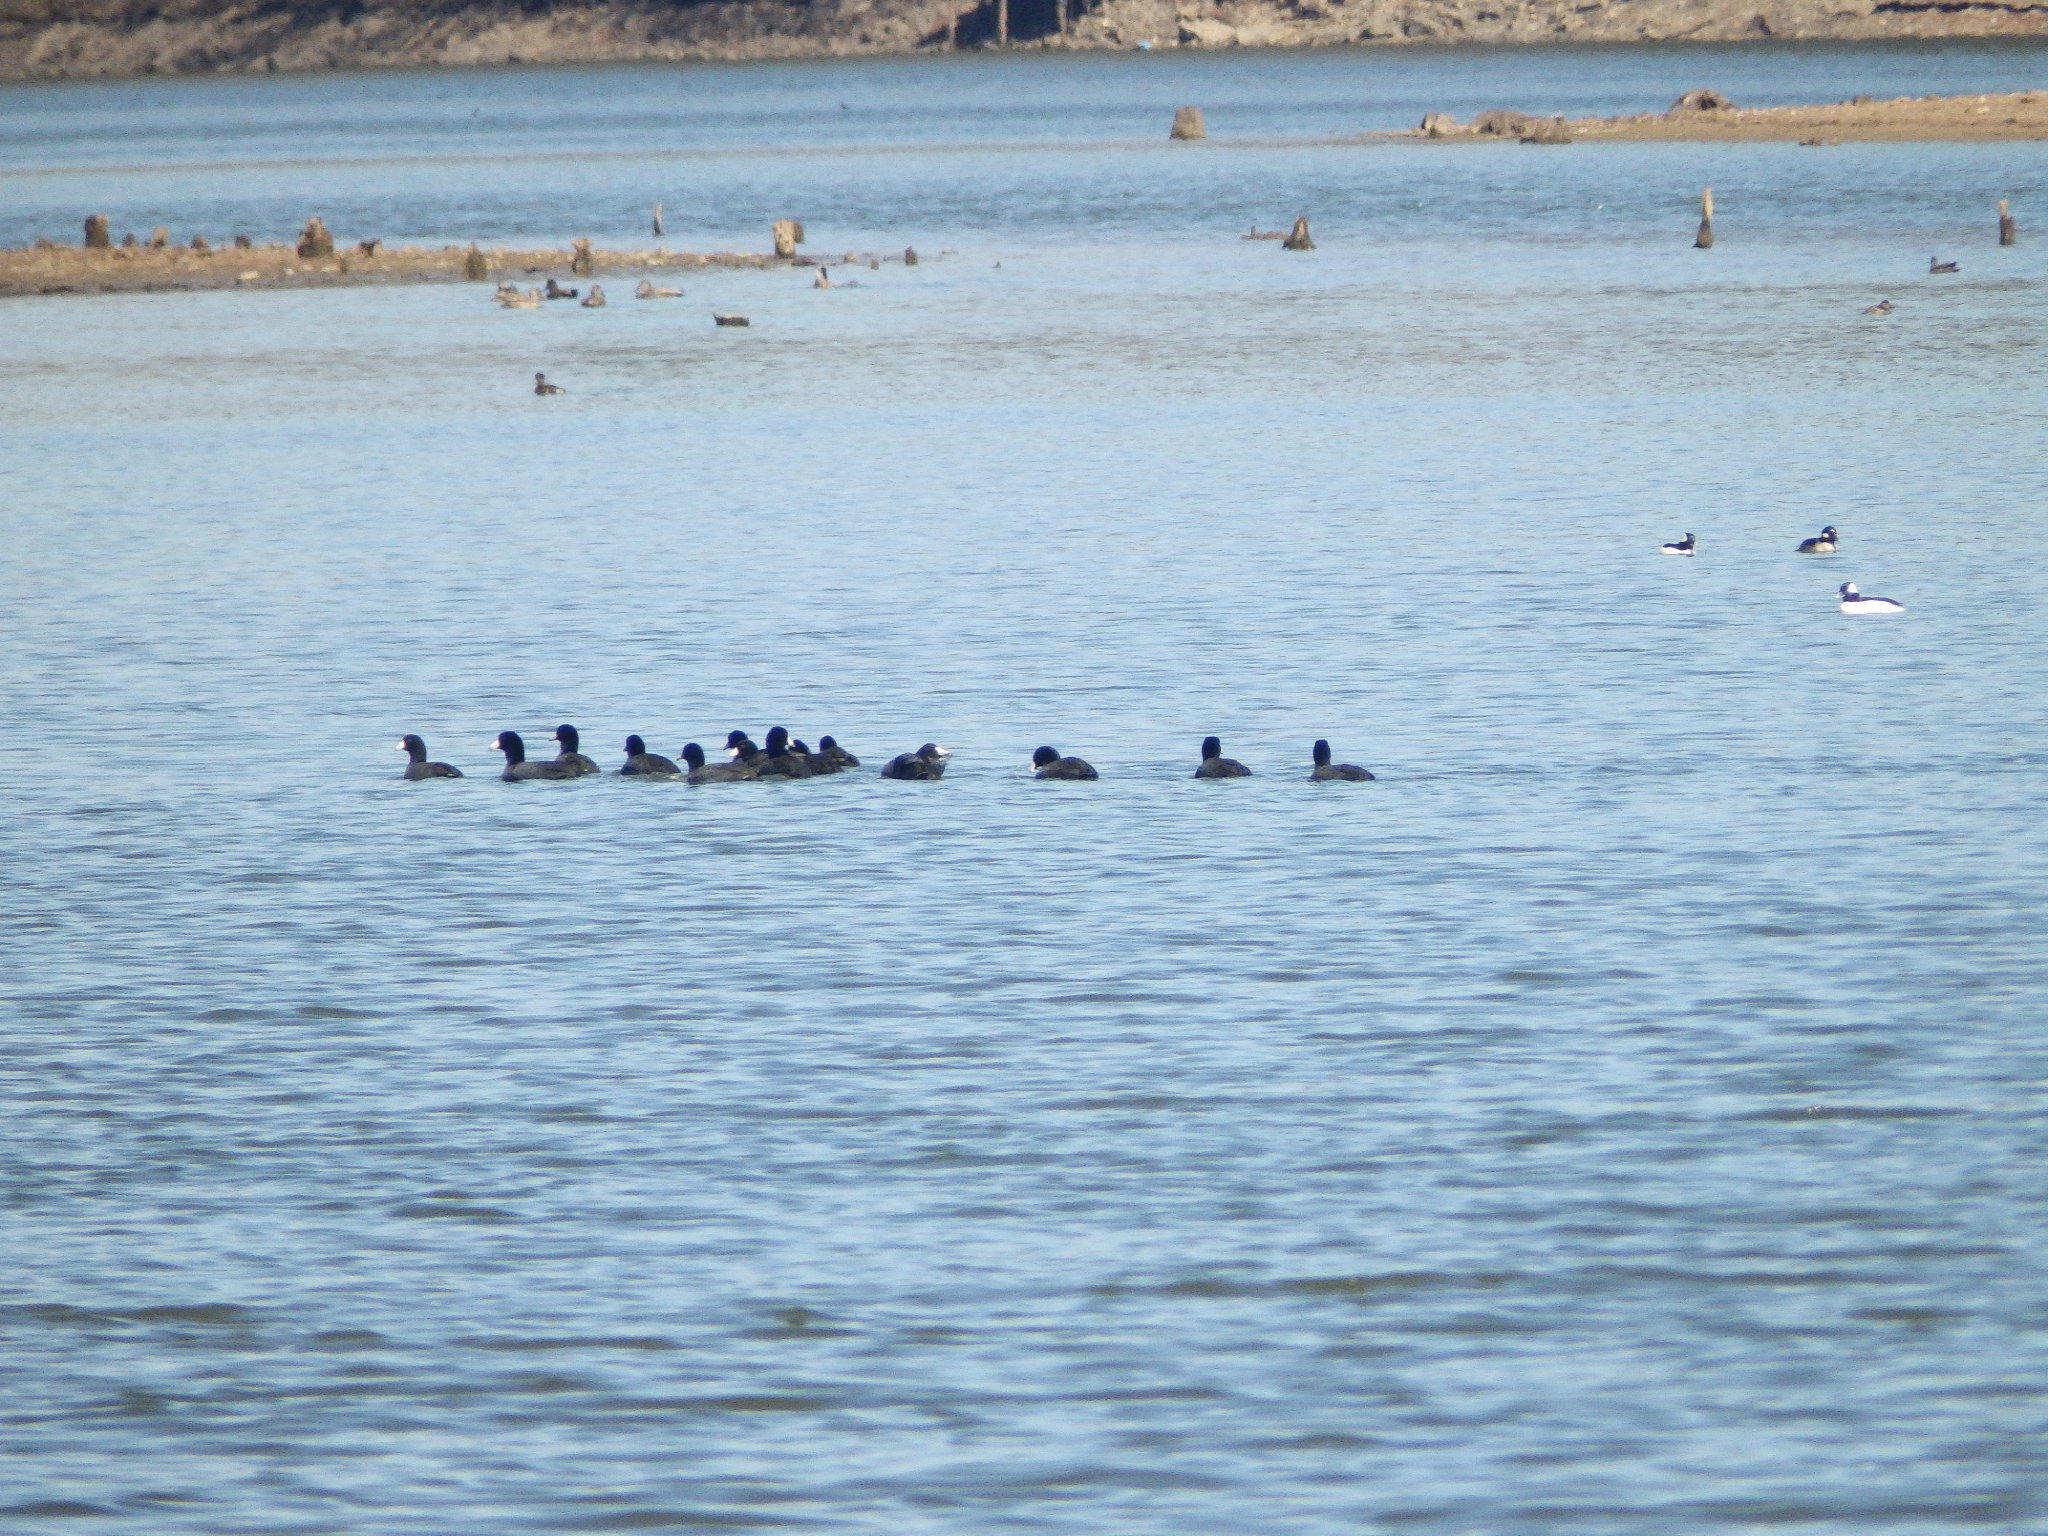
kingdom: Animalia
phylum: Chordata
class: Aves
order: Gruiformes
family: Rallidae
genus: Fulica
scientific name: Fulica americana
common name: American coot
